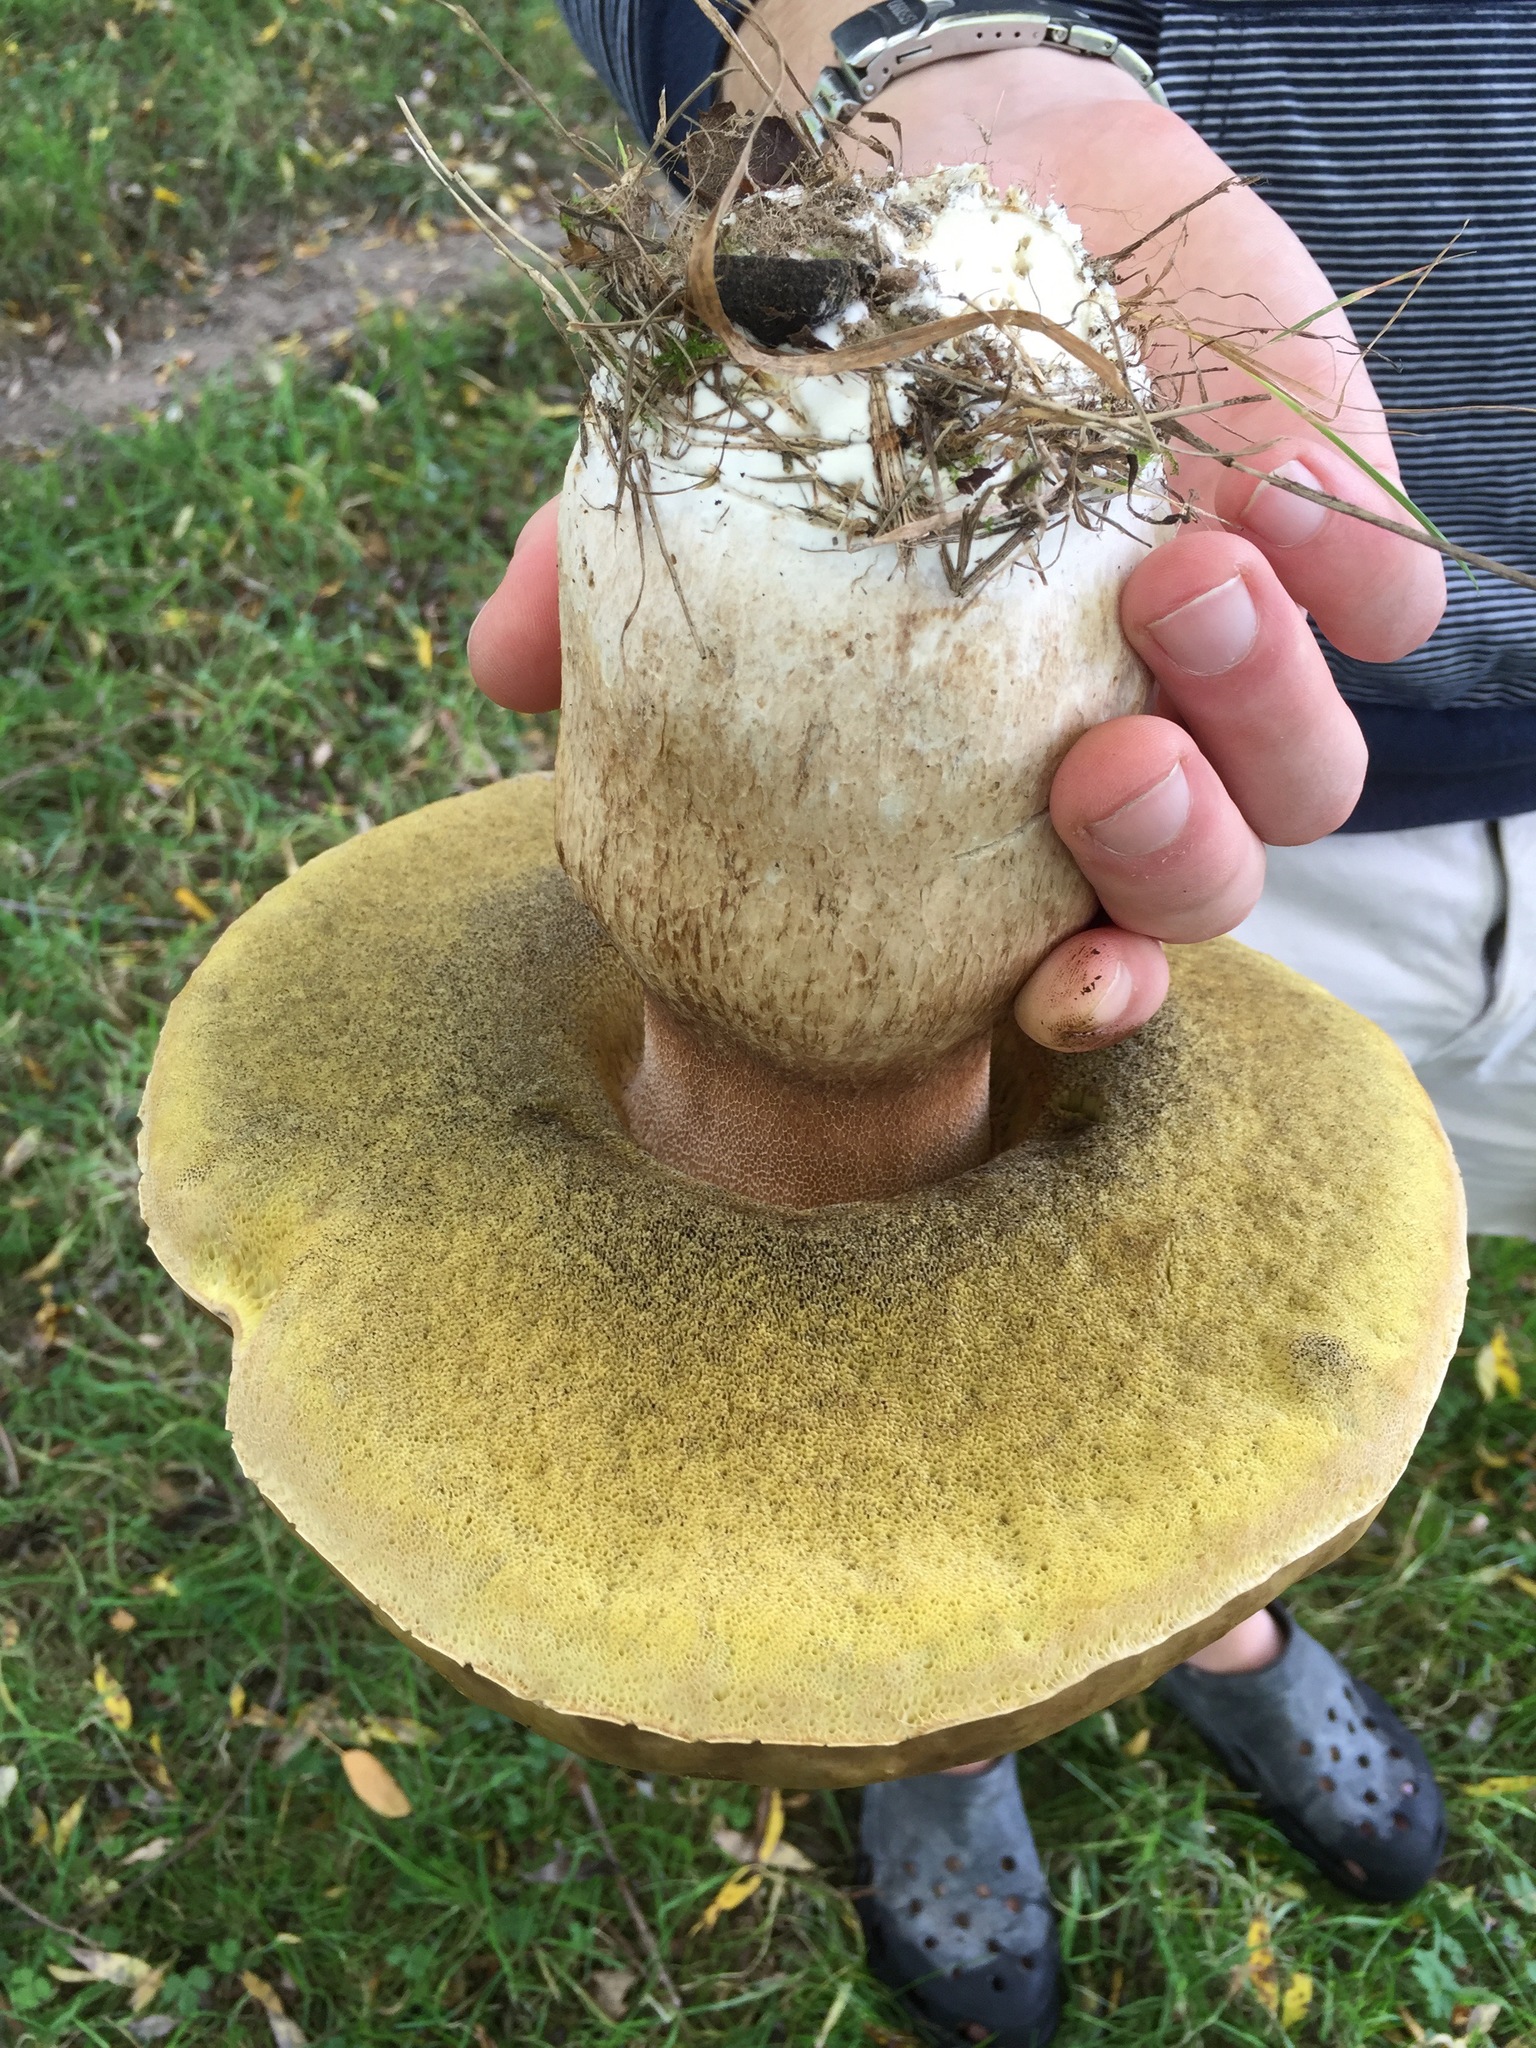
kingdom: Fungi
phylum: Basidiomycota
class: Agaricomycetes
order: Boletales
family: Boletaceae
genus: Boletus
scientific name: Boletus edulis
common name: Cep
